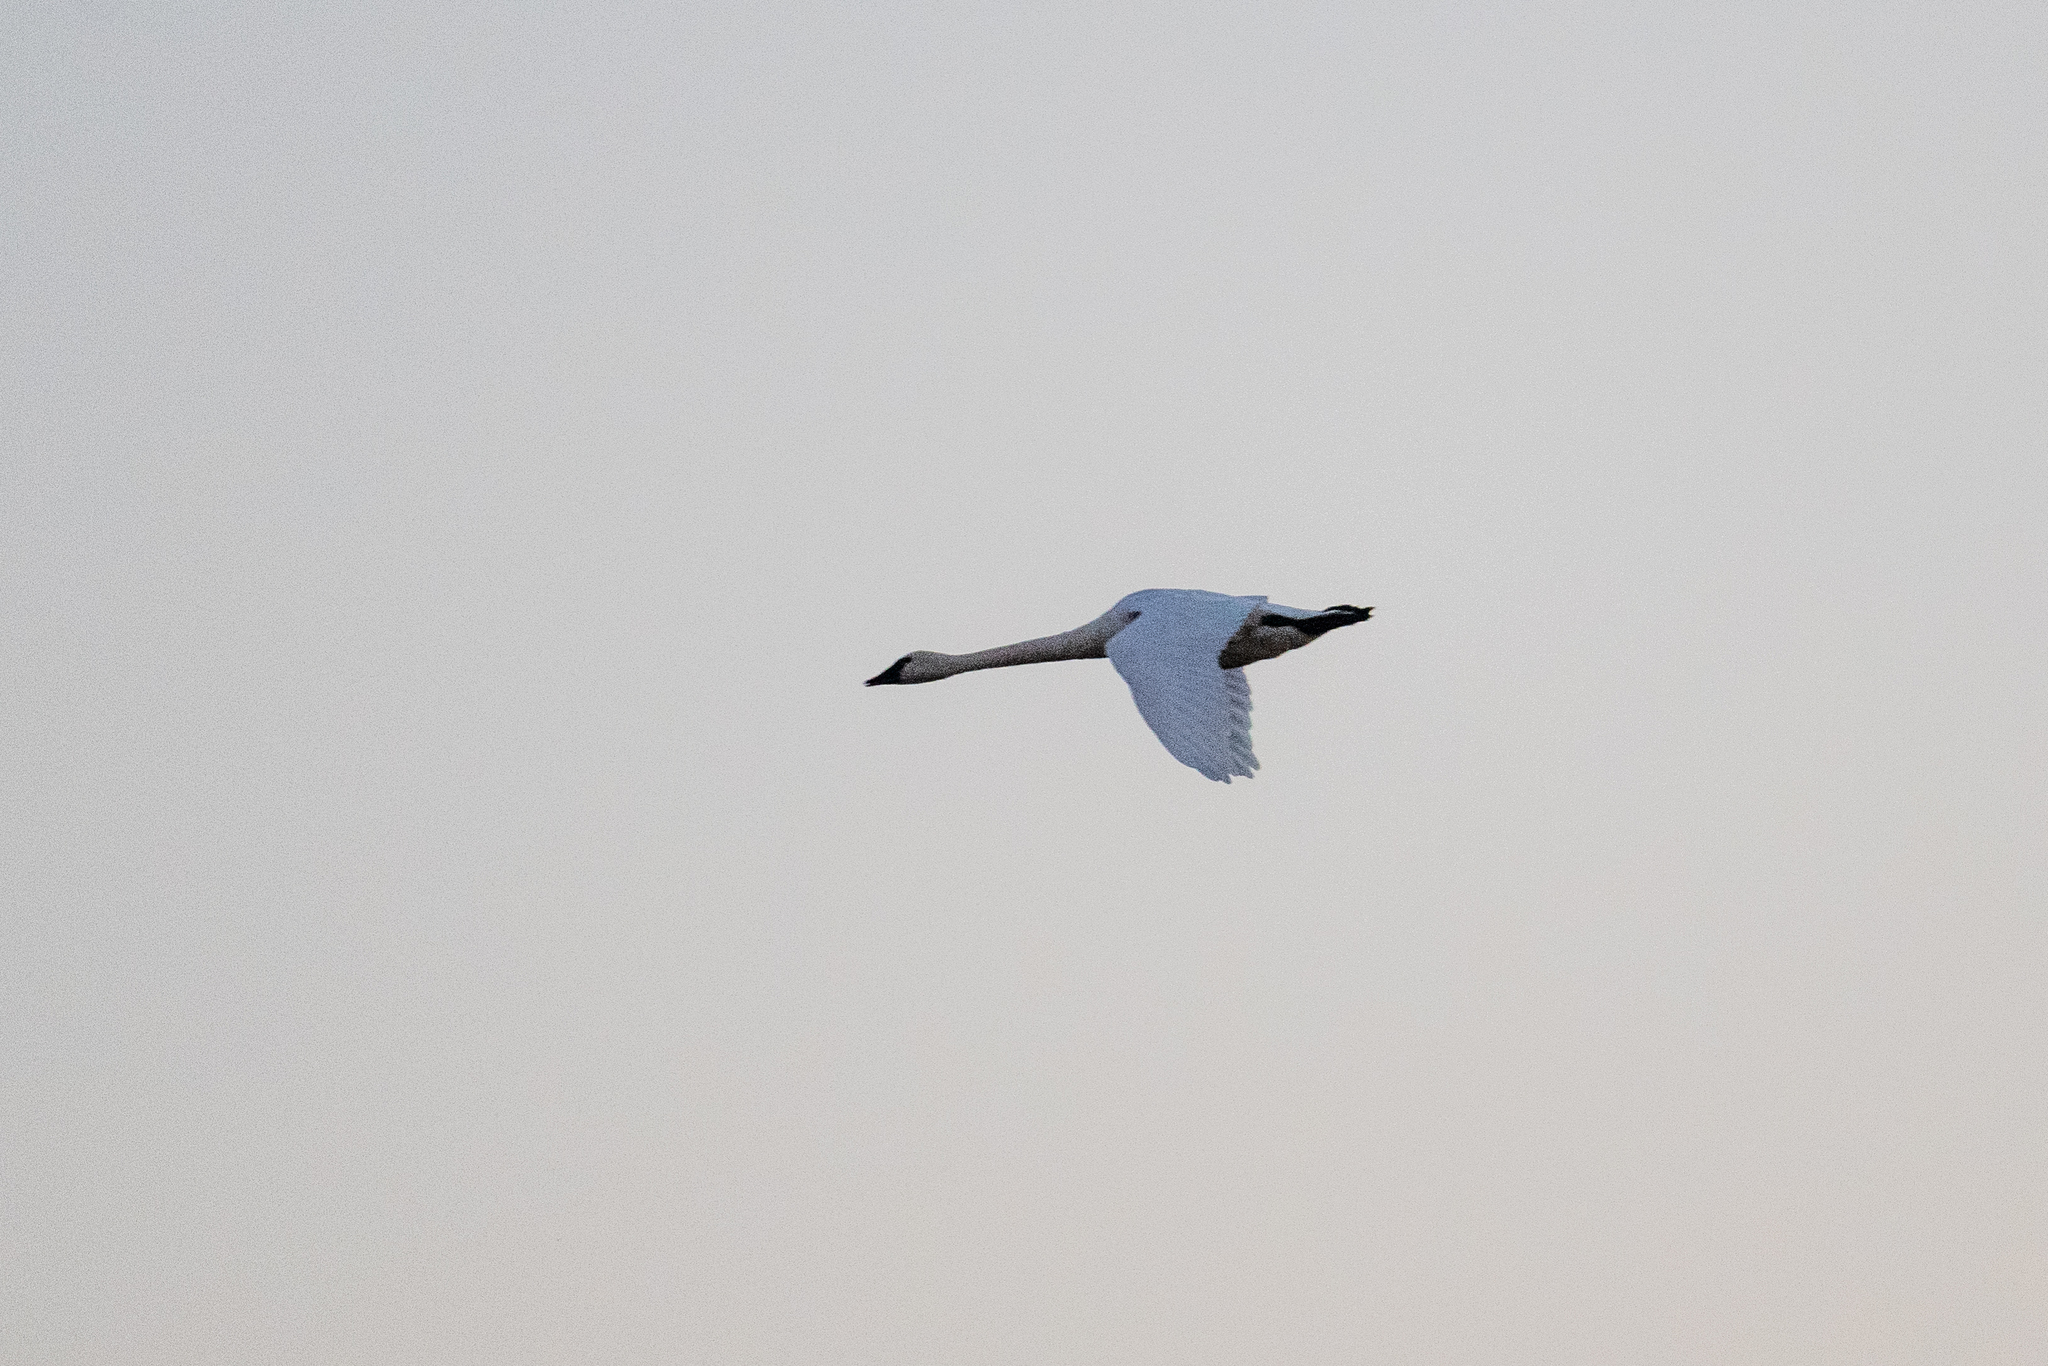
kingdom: Animalia
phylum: Chordata
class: Aves
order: Anseriformes
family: Anatidae
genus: Cygnus
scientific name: Cygnus columbianus
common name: Tundra swan
